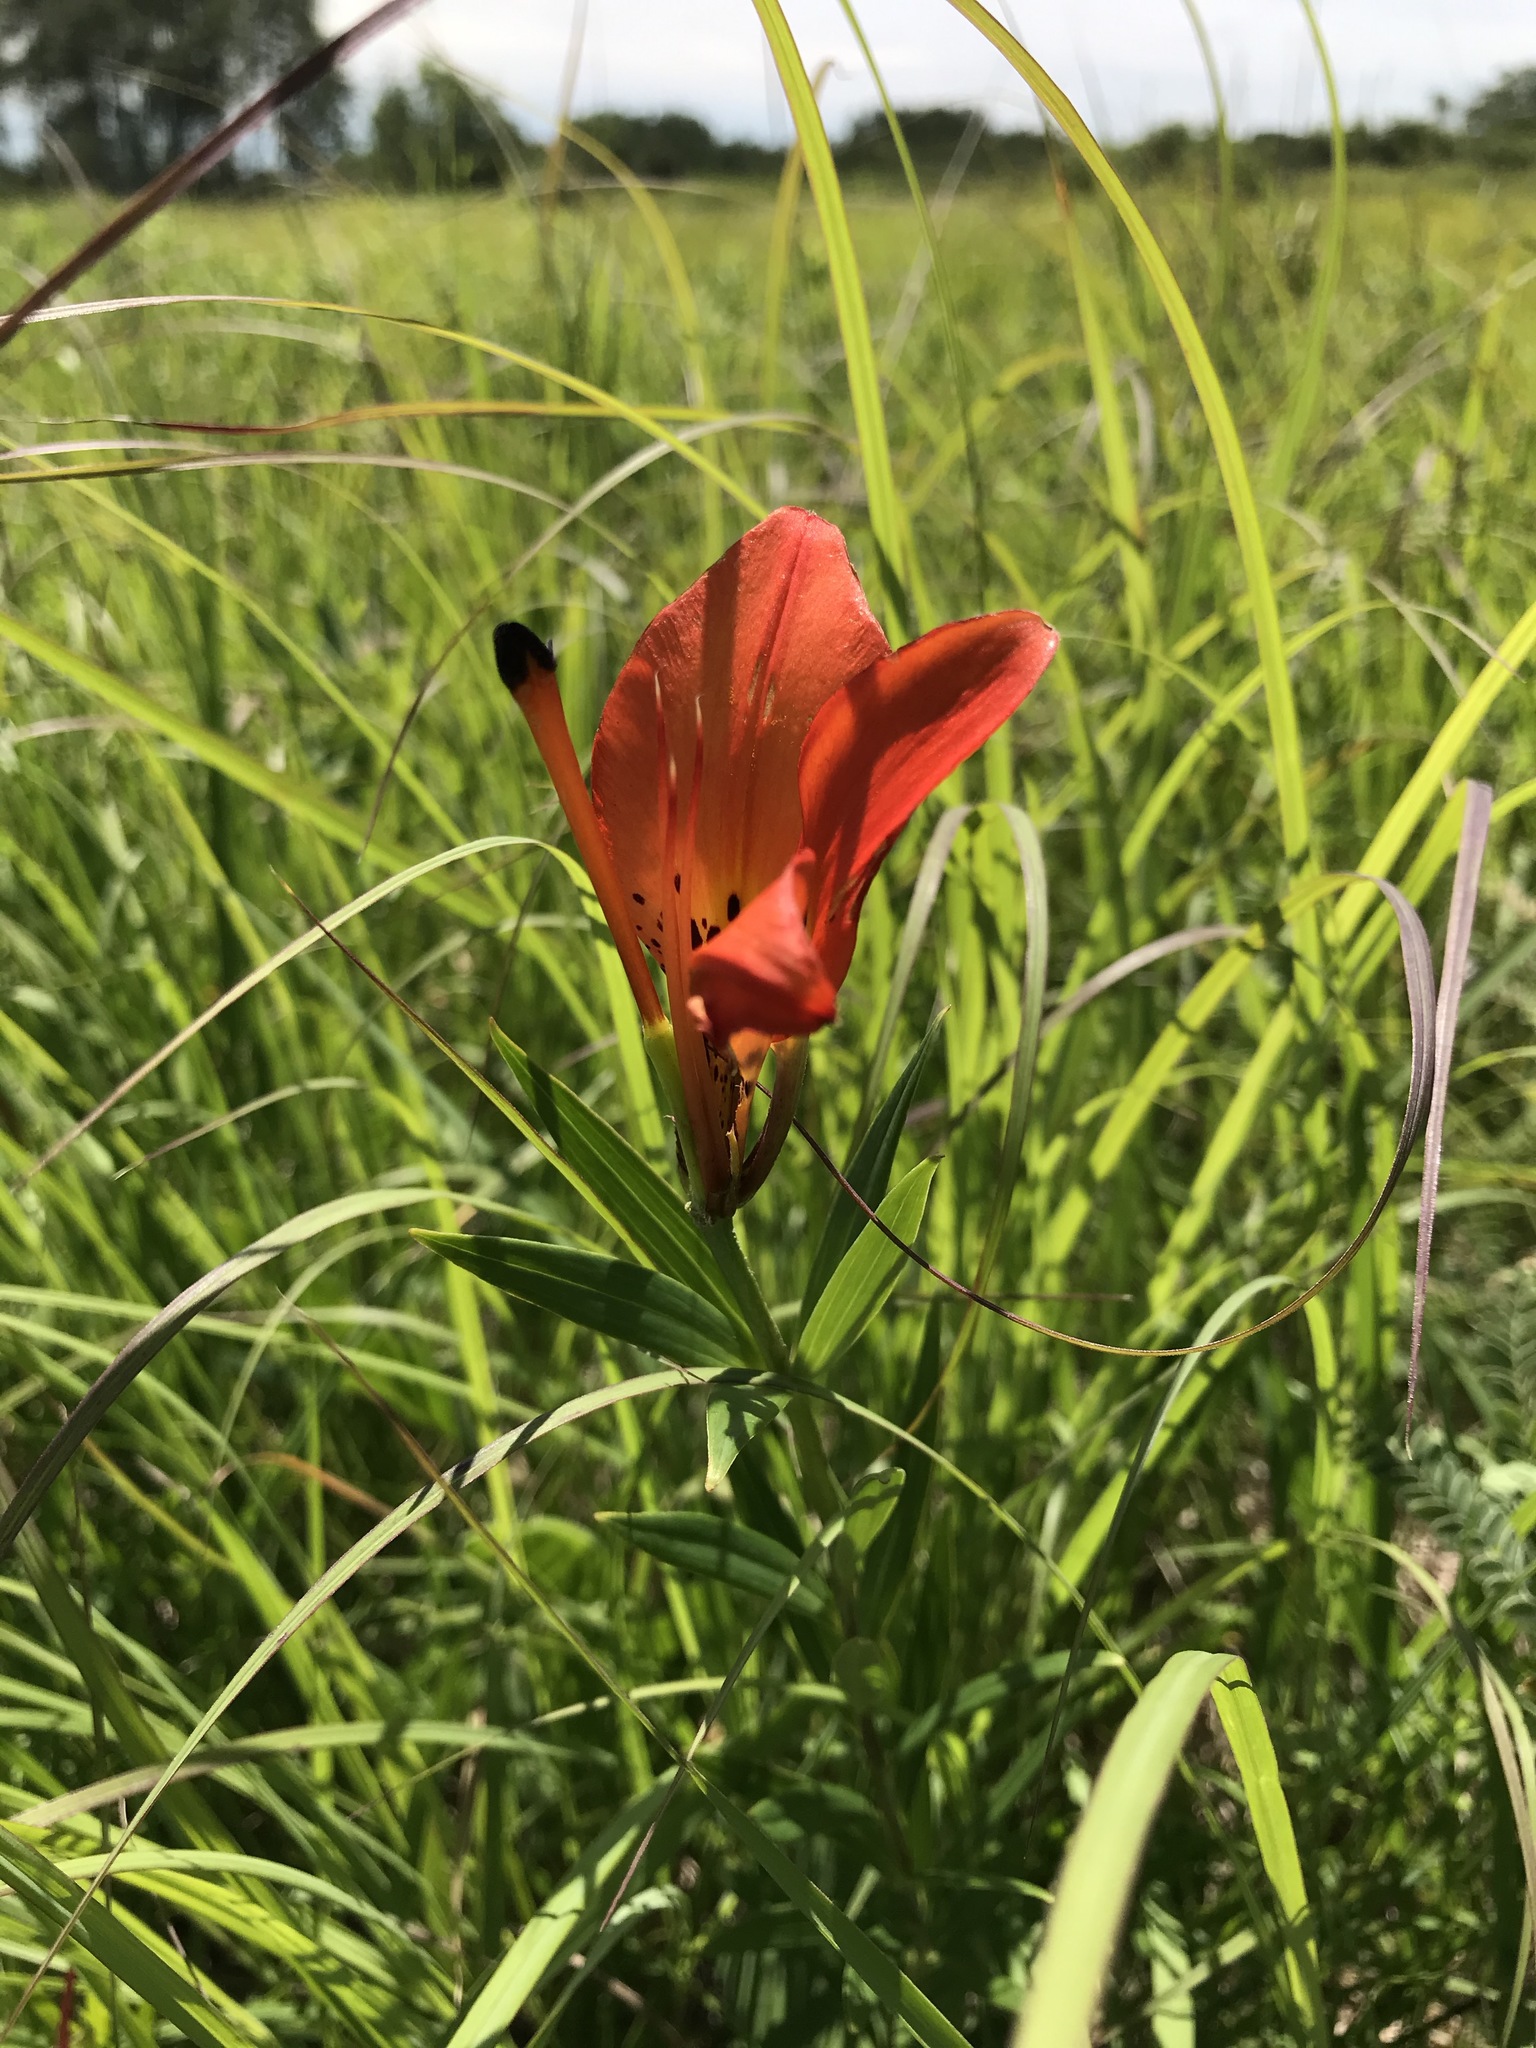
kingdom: Plantae
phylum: Tracheophyta
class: Liliopsida
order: Liliales
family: Liliaceae
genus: Lilium
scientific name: Lilium philadelphicum
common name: Red lily
